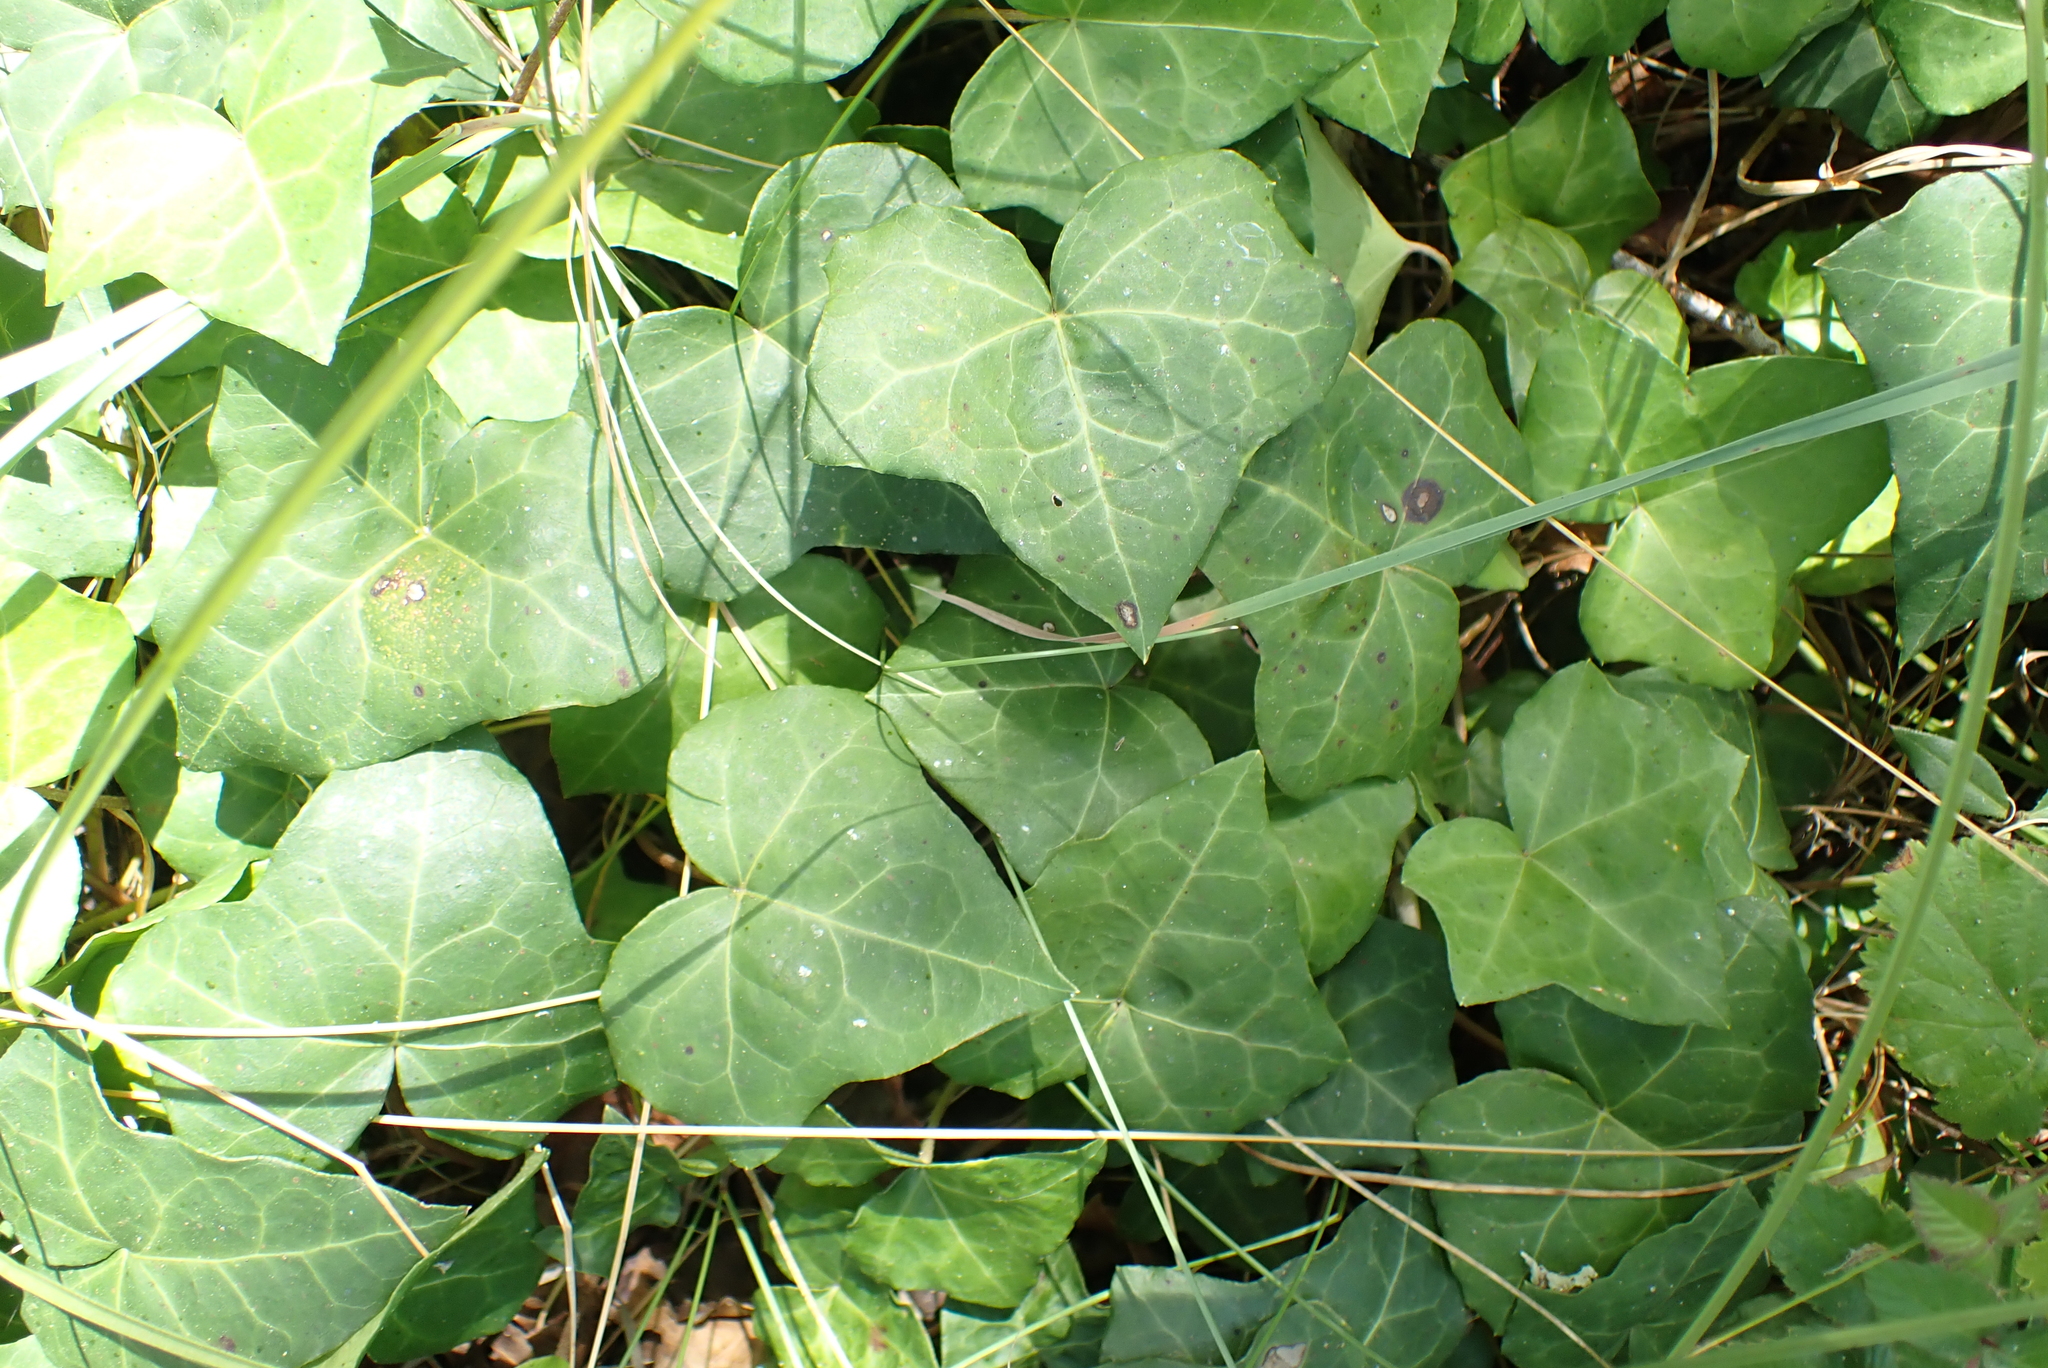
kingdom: Plantae
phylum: Tracheophyta
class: Magnoliopsida
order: Apiales
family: Araliaceae
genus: Hedera
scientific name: Hedera helix
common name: Ivy
